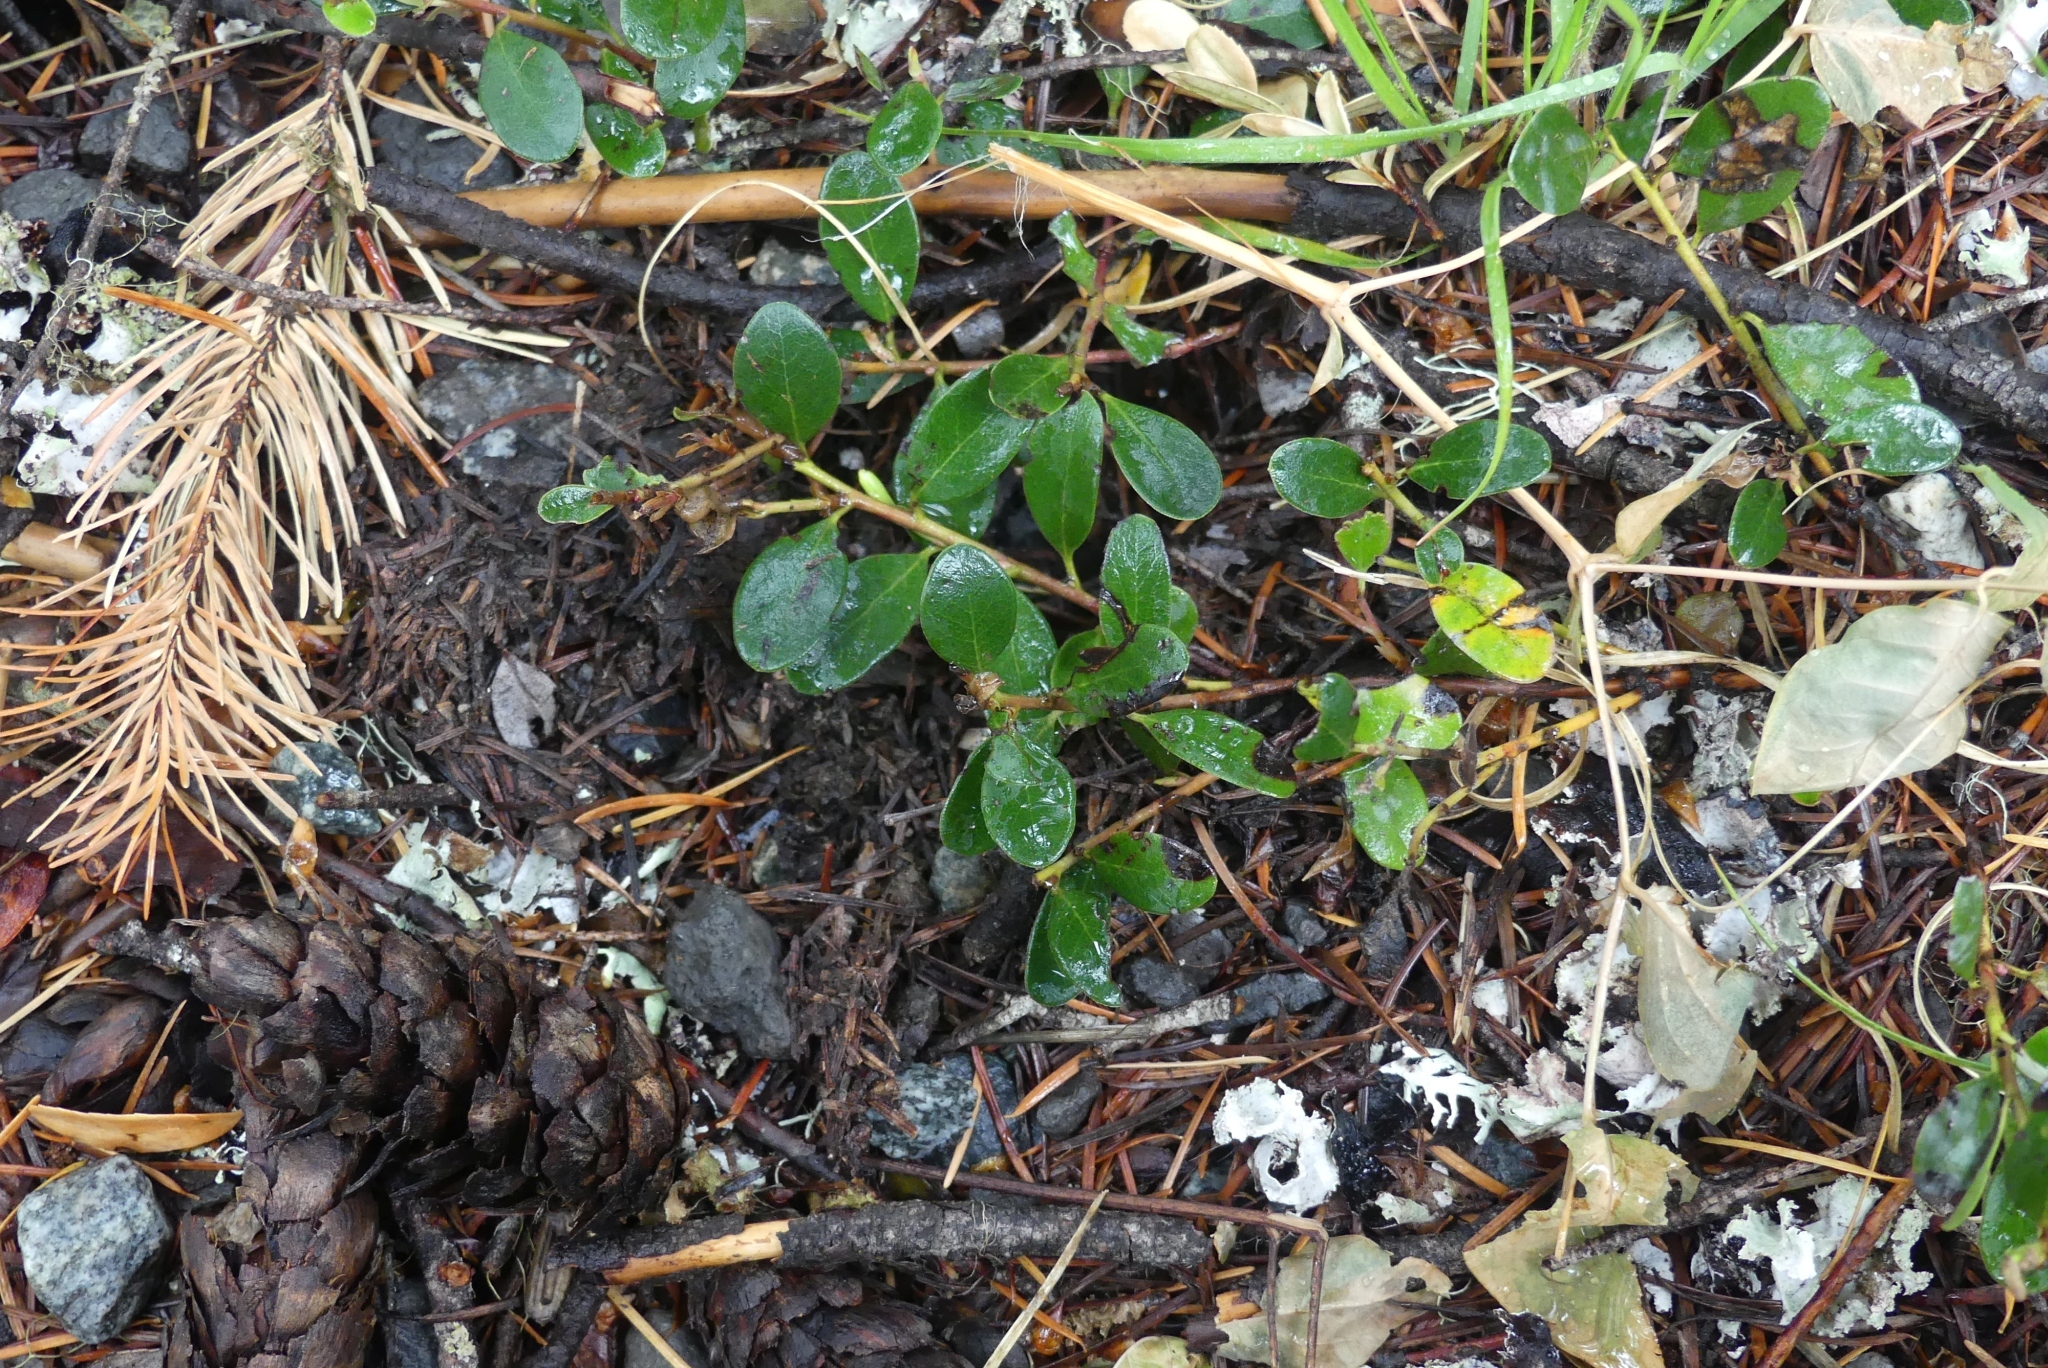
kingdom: Plantae
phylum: Tracheophyta
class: Magnoliopsida
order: Ericales
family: Ericaceae
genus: Arctostaphylos
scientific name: Arctostaphylos uva-ursi
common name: Bearberry
